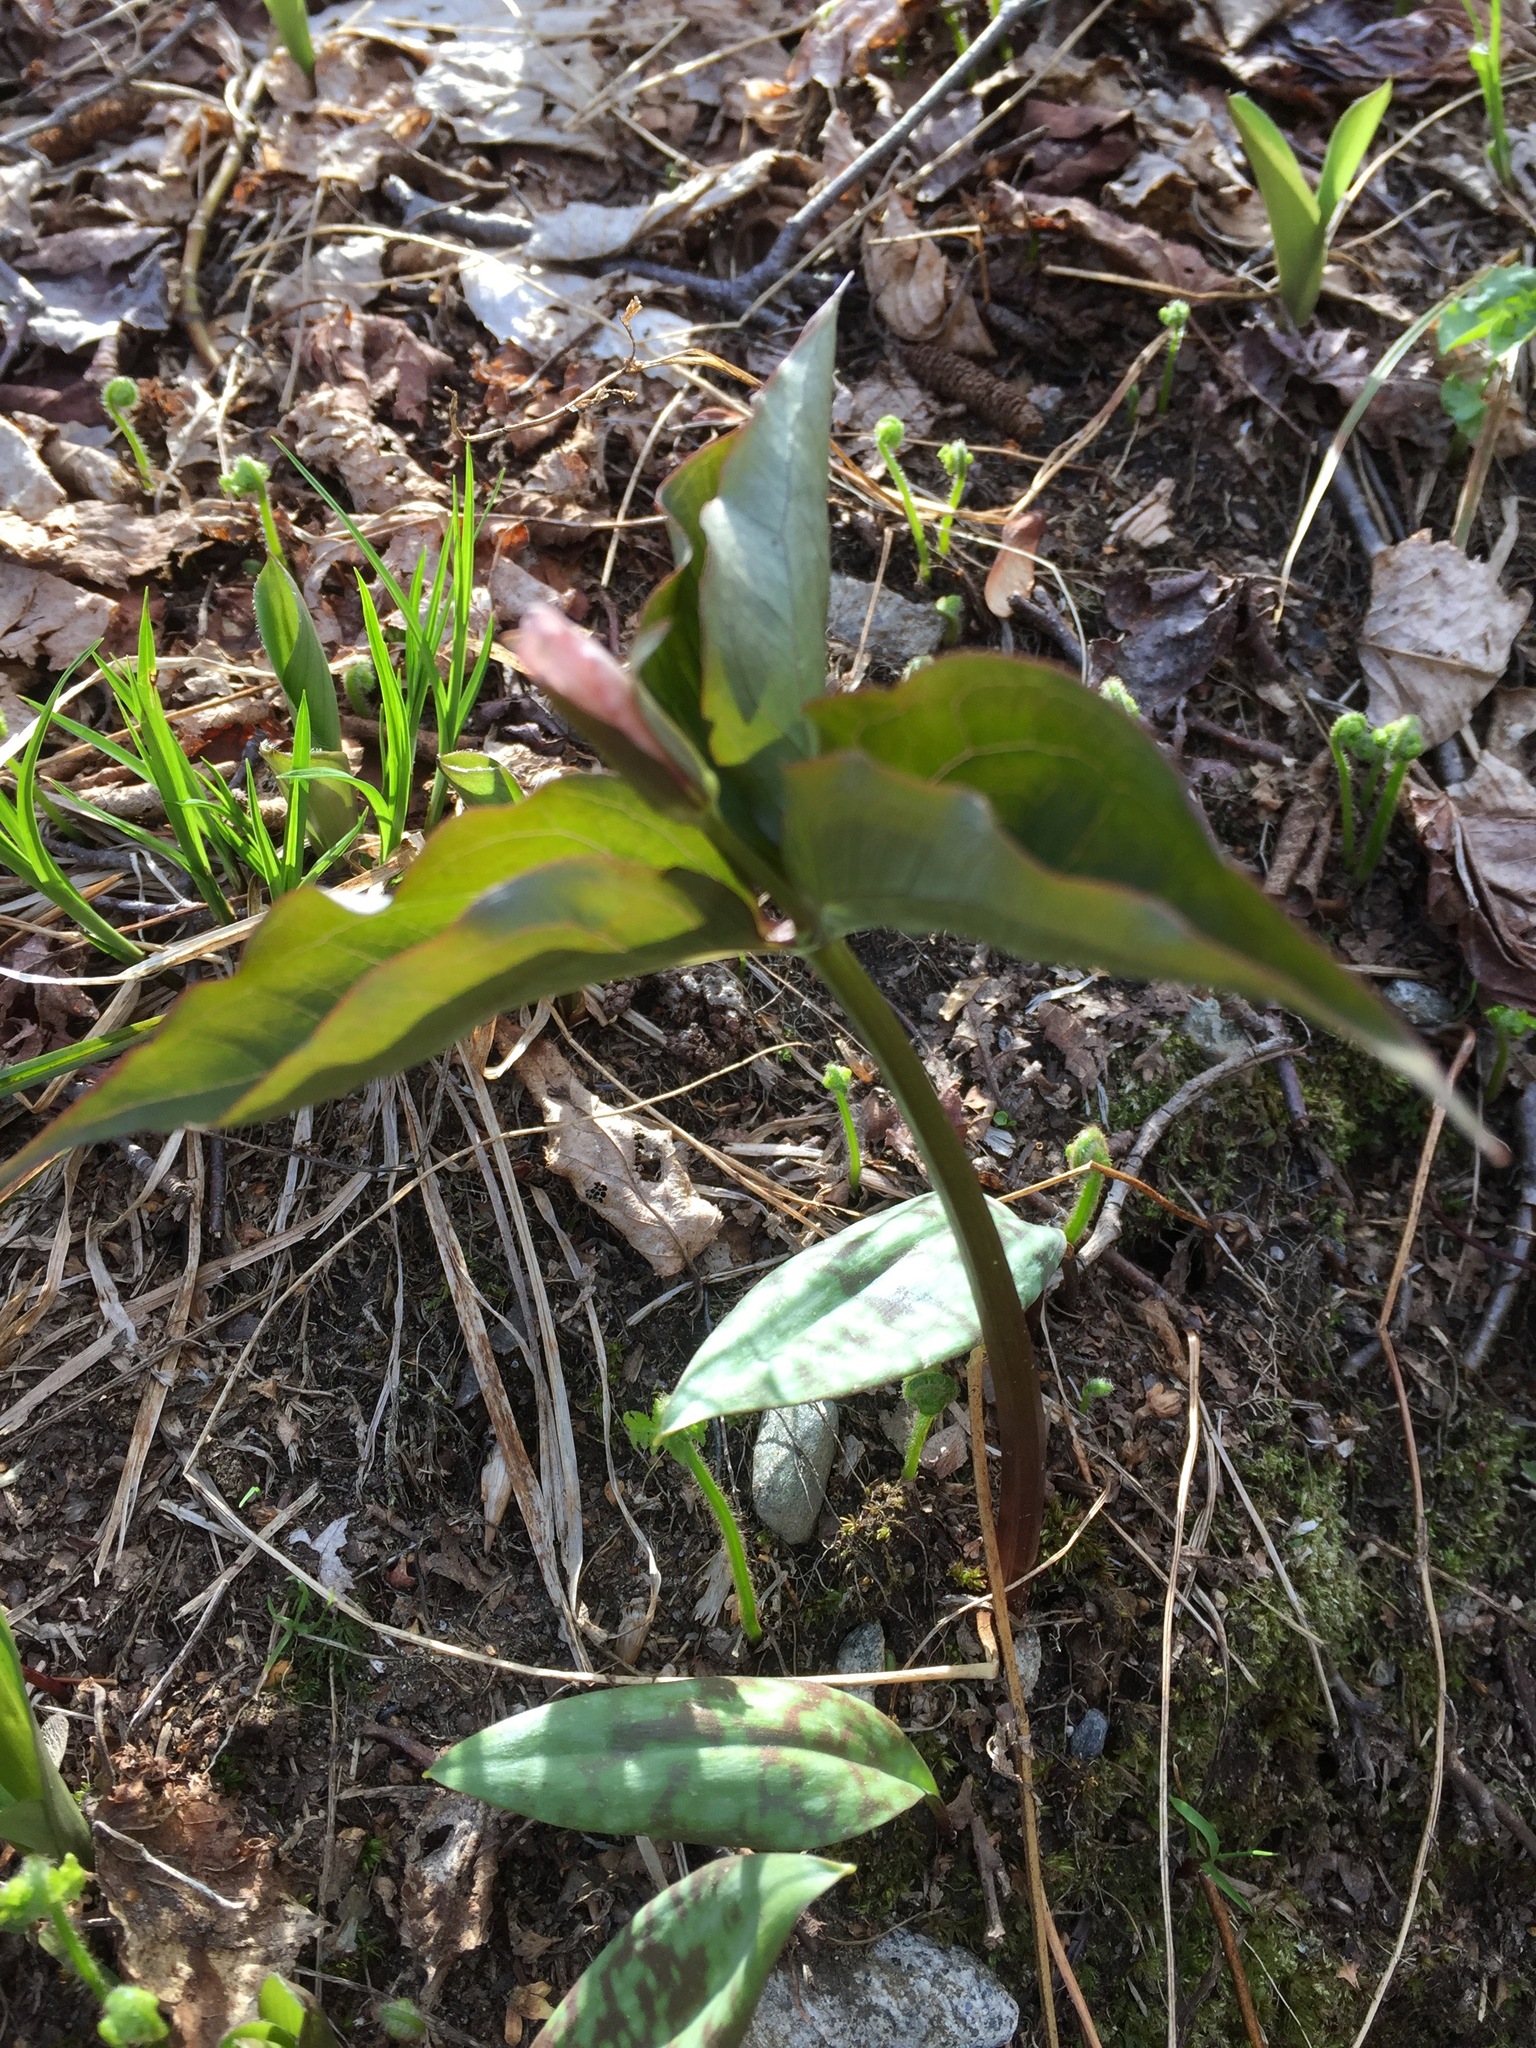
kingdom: Plantae
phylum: Tracheophyta
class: Liliopsida
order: Liliales
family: Melanthiaceae
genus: Trillium
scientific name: Trillium undulatum
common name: Paint trillium
